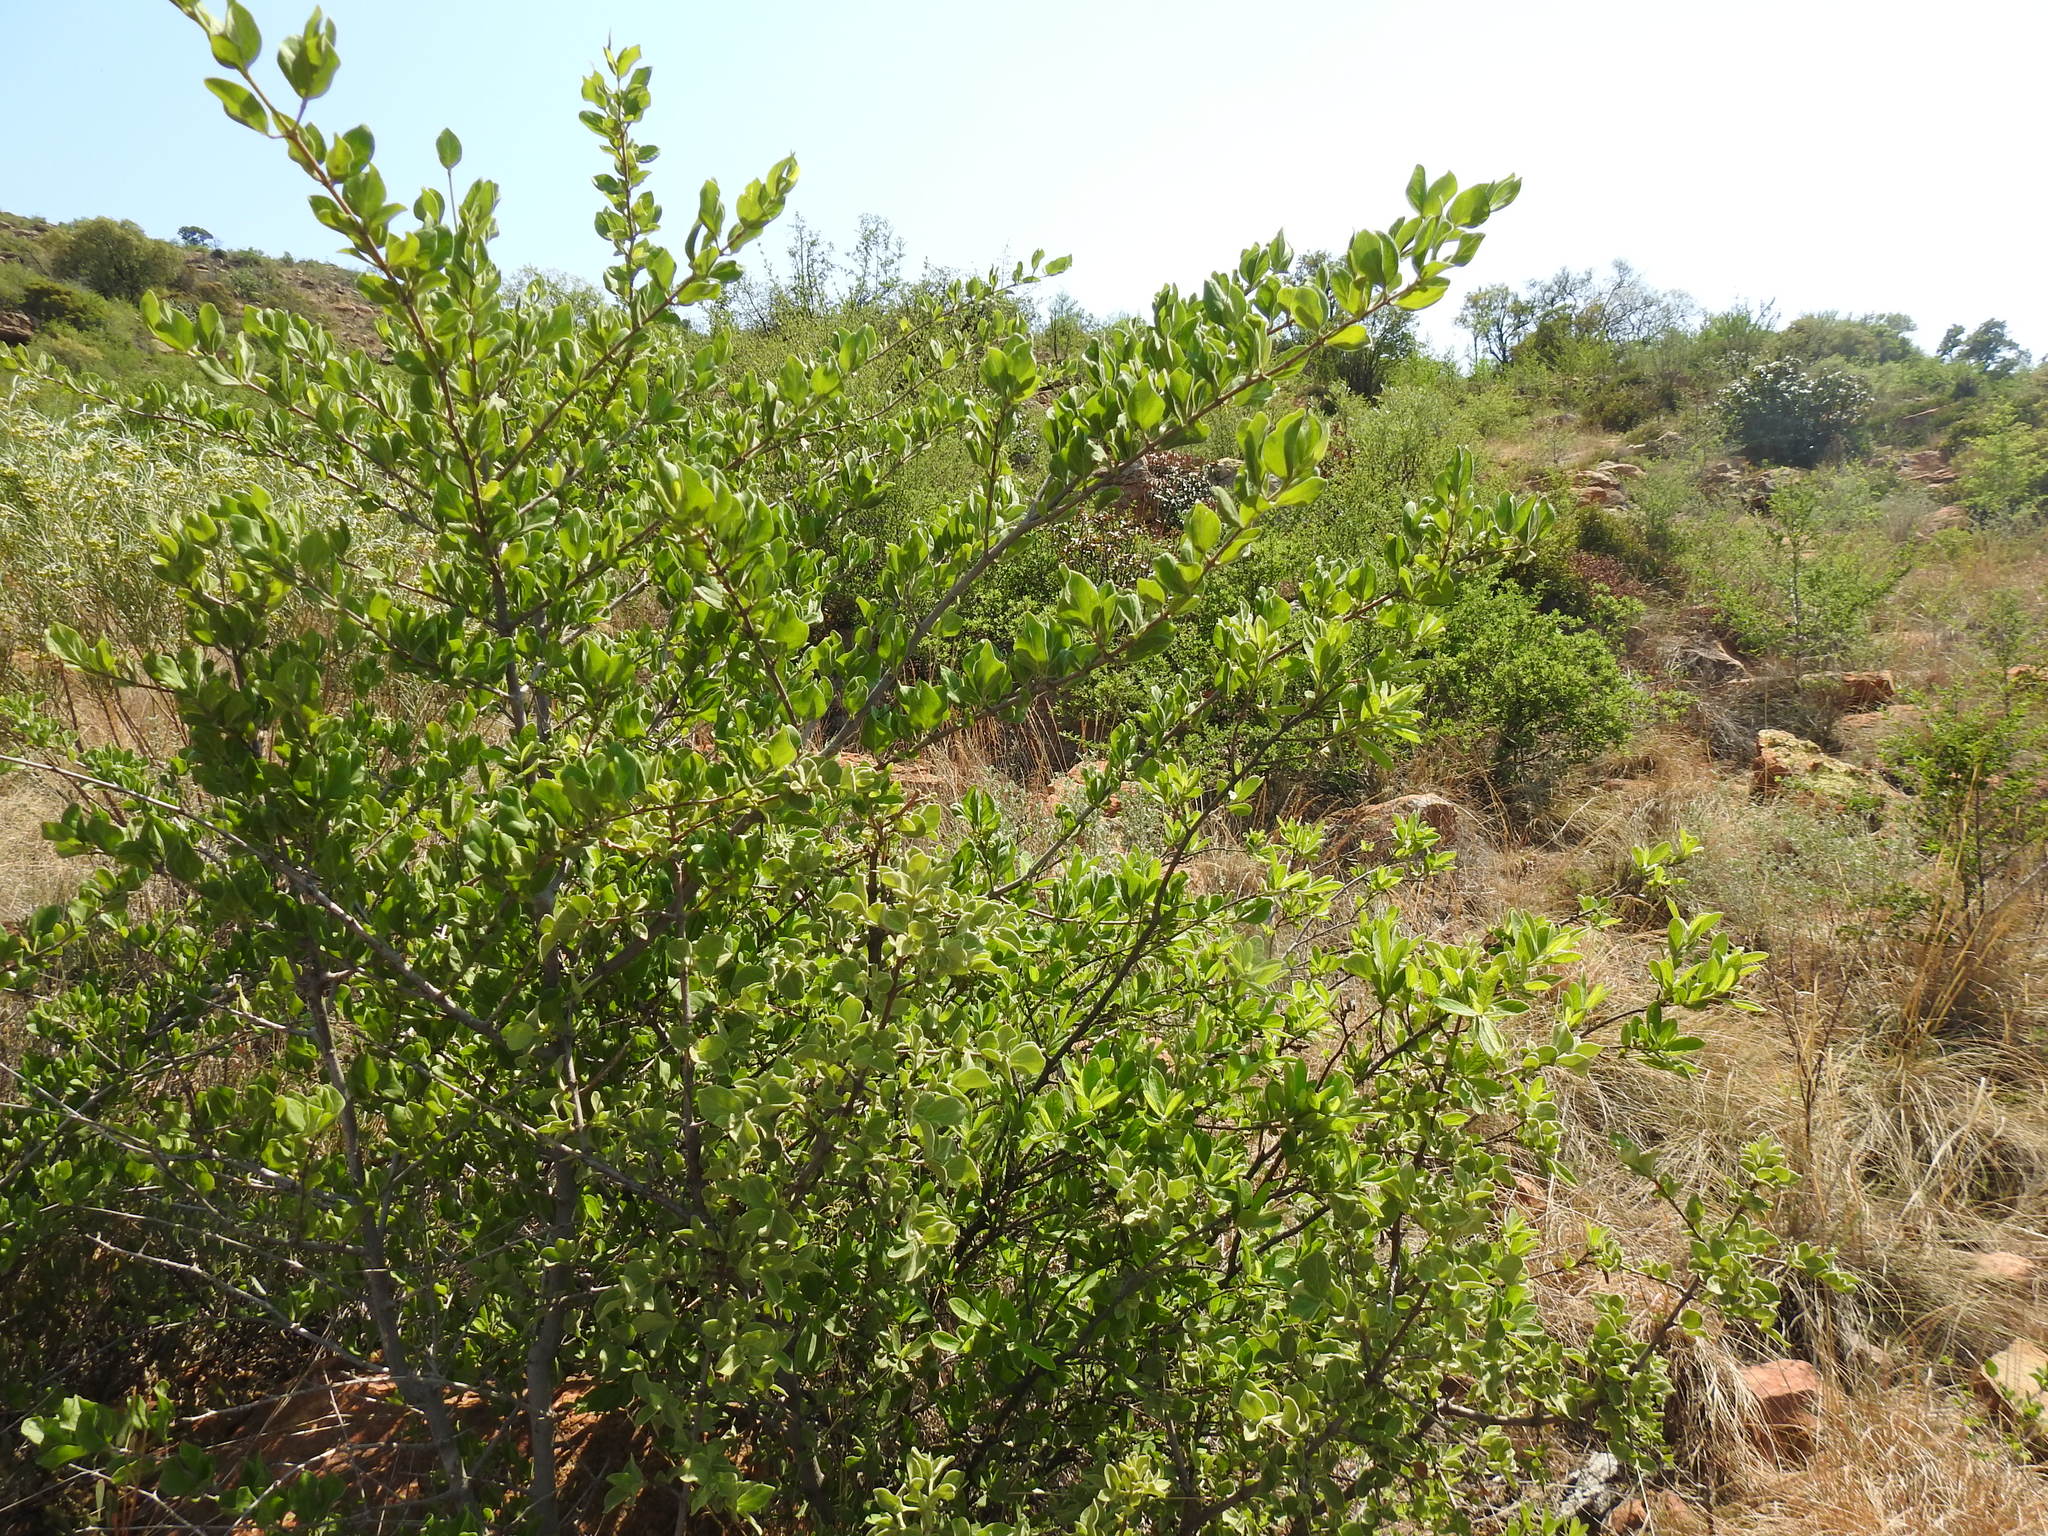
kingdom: Plantae
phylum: Tracheophyta
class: Magnoliopsida
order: Gentianales
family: Rubiaceae
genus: Afrocanthium
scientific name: Afrocanthium gilfillanii
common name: Velvet rock-alder
